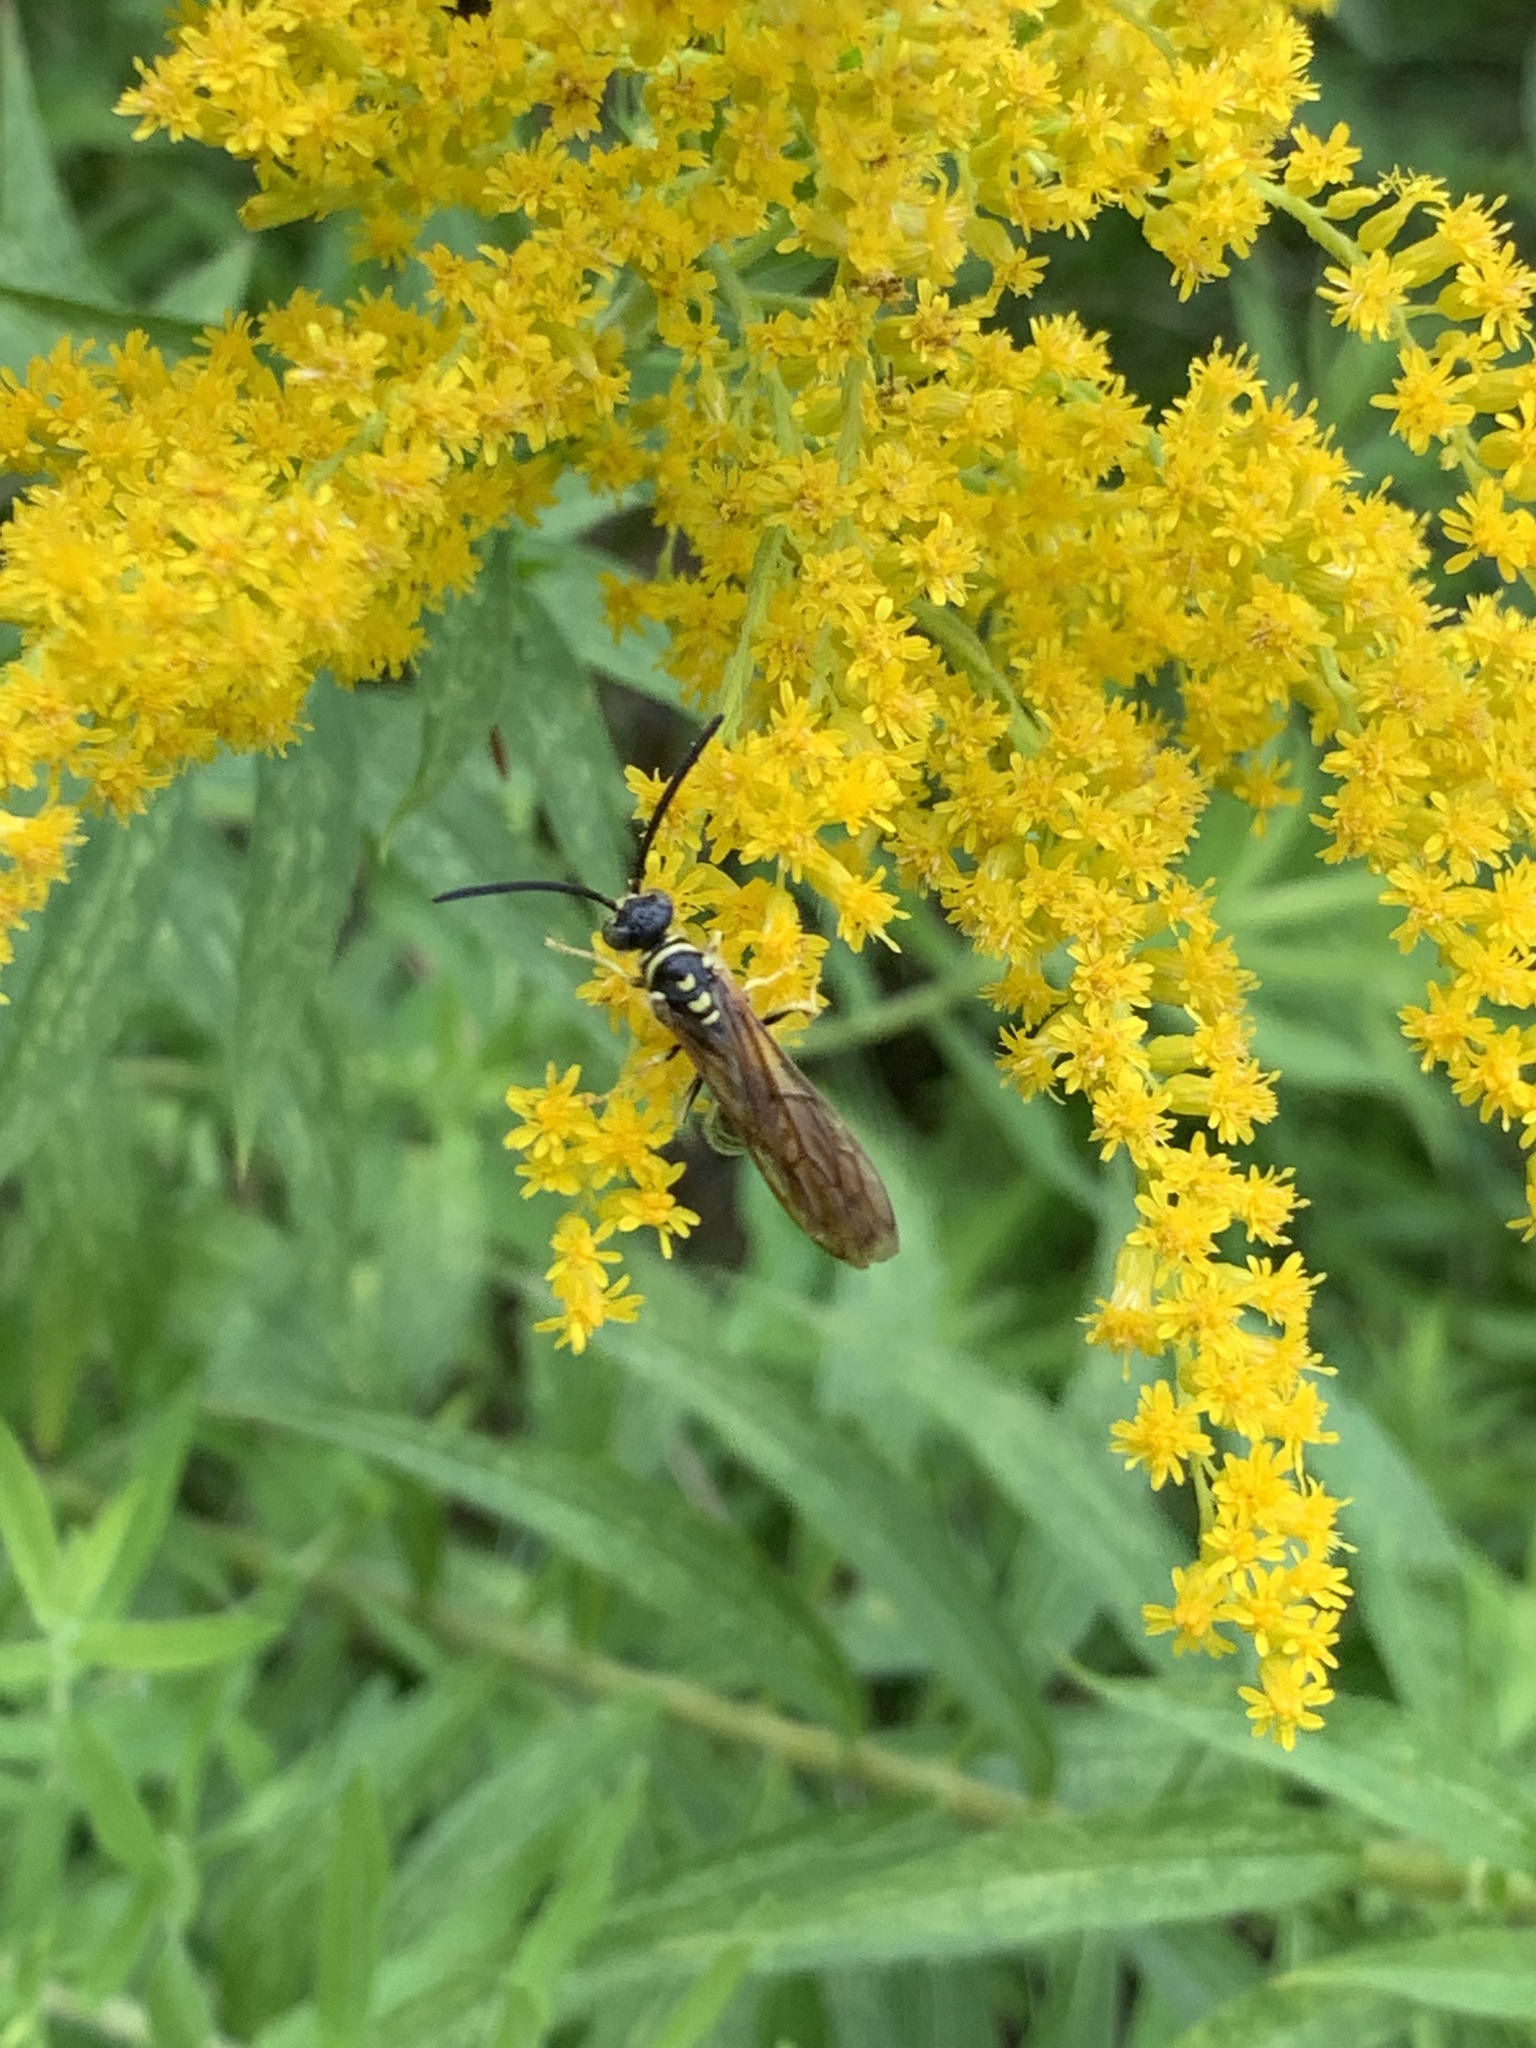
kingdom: Animalia
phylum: Arthropoda
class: Insecta
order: Hymenoptera
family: Tiphiidae
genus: Myzinum
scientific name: Myzinum quinquecinctum
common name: Five-banded thynnid wasp
